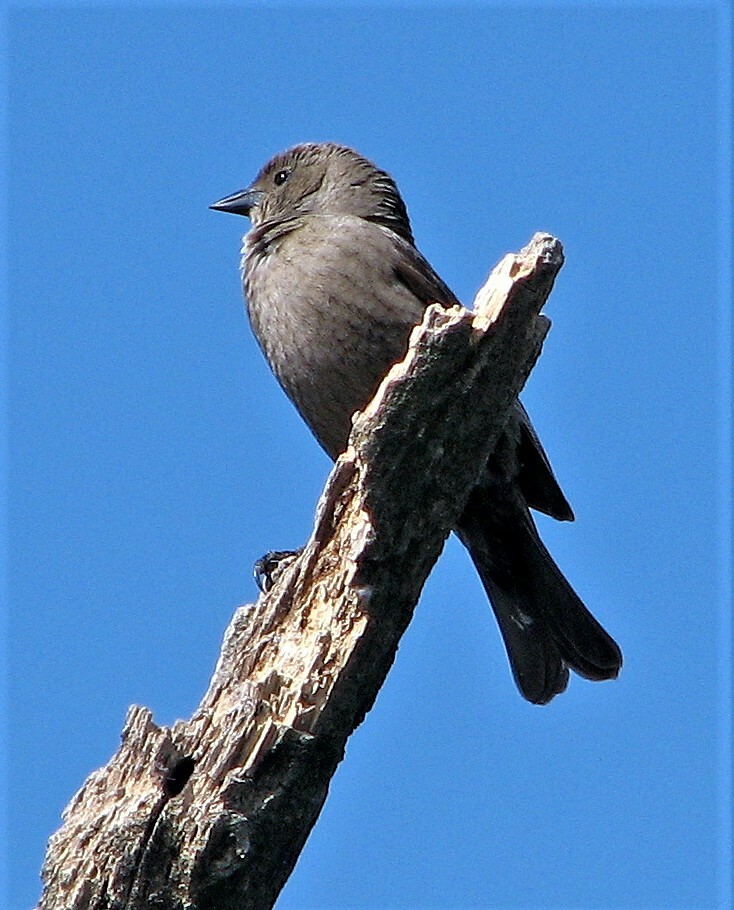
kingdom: Animalia
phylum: Chordata
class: Aves
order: Passeriformes
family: Icteridae
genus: Molothrus
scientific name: Molothrus bonariensis
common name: Shiny cowbird
